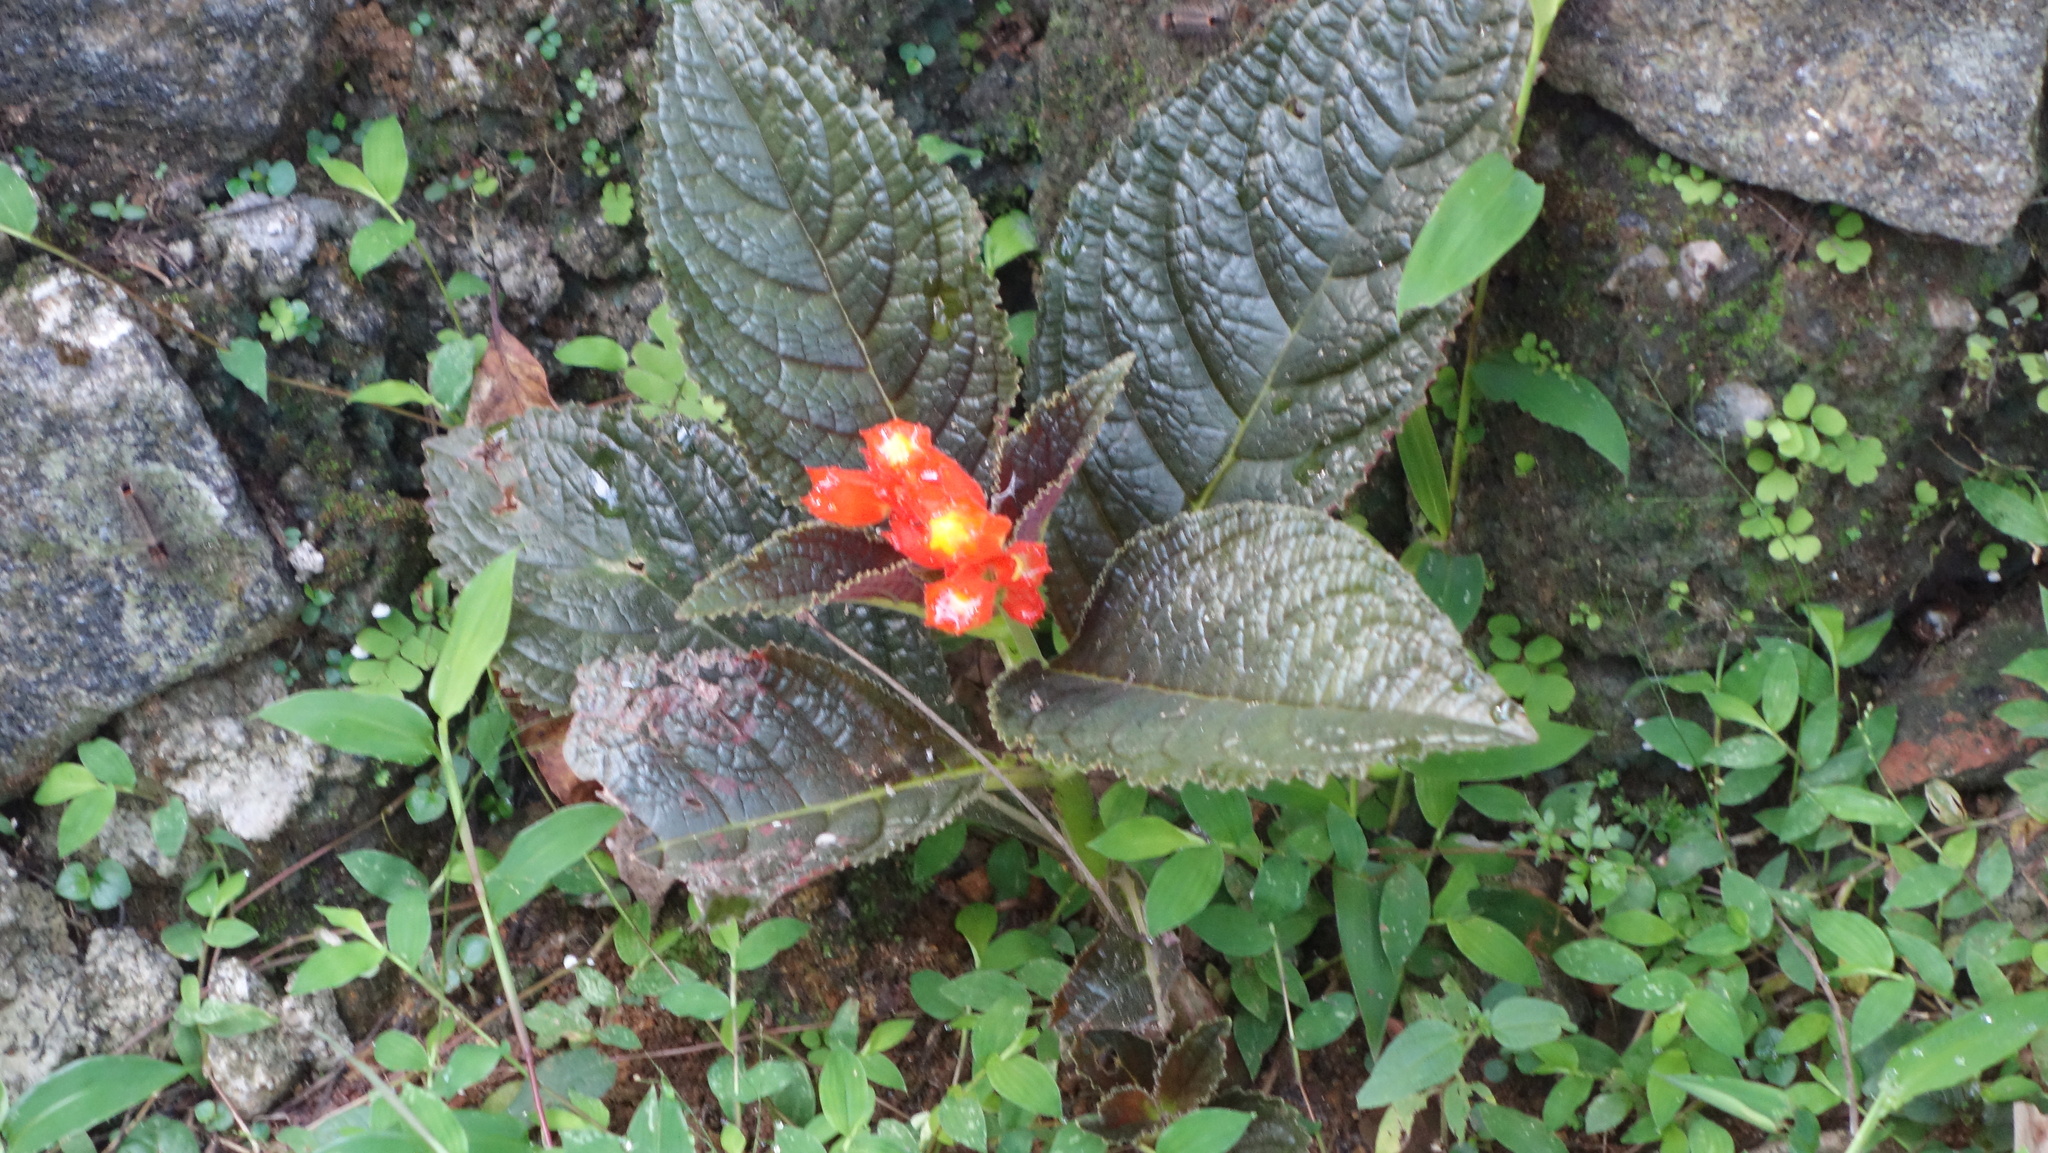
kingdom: Plantae
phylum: Tracheophyta
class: Magnoliopsida
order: Lamiales
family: Gesneriaceae
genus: Chrysothemis
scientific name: Chrysothemis pulchella
